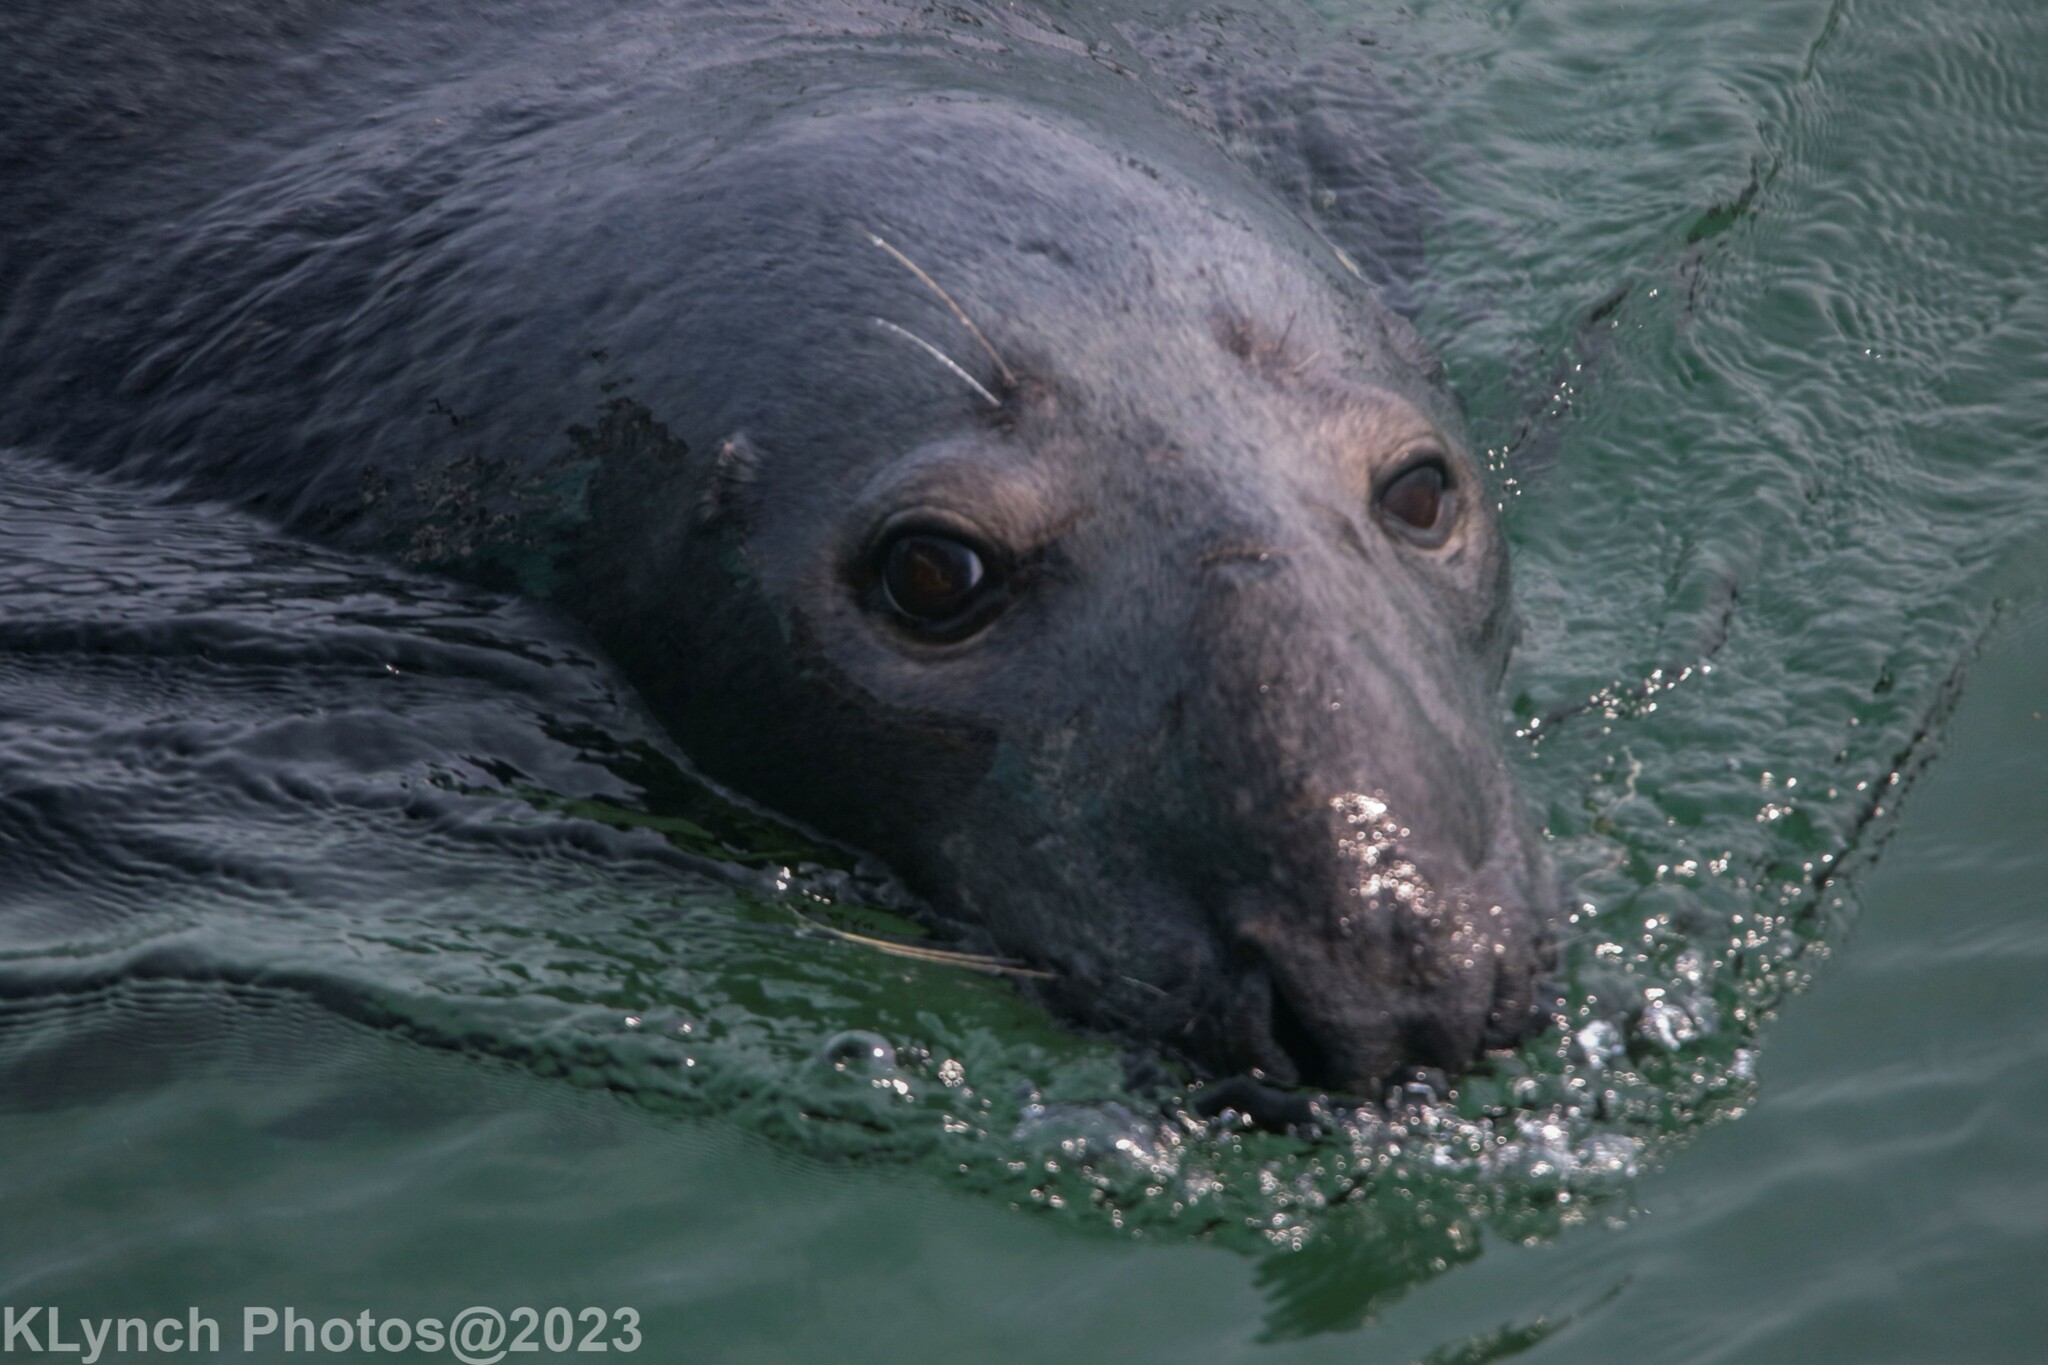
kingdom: Animalia
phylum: Chordata
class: Mammalia
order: Carnivora
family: Phocidae
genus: Halichoerus
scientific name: Halichoerus grypus
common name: Grey seal
